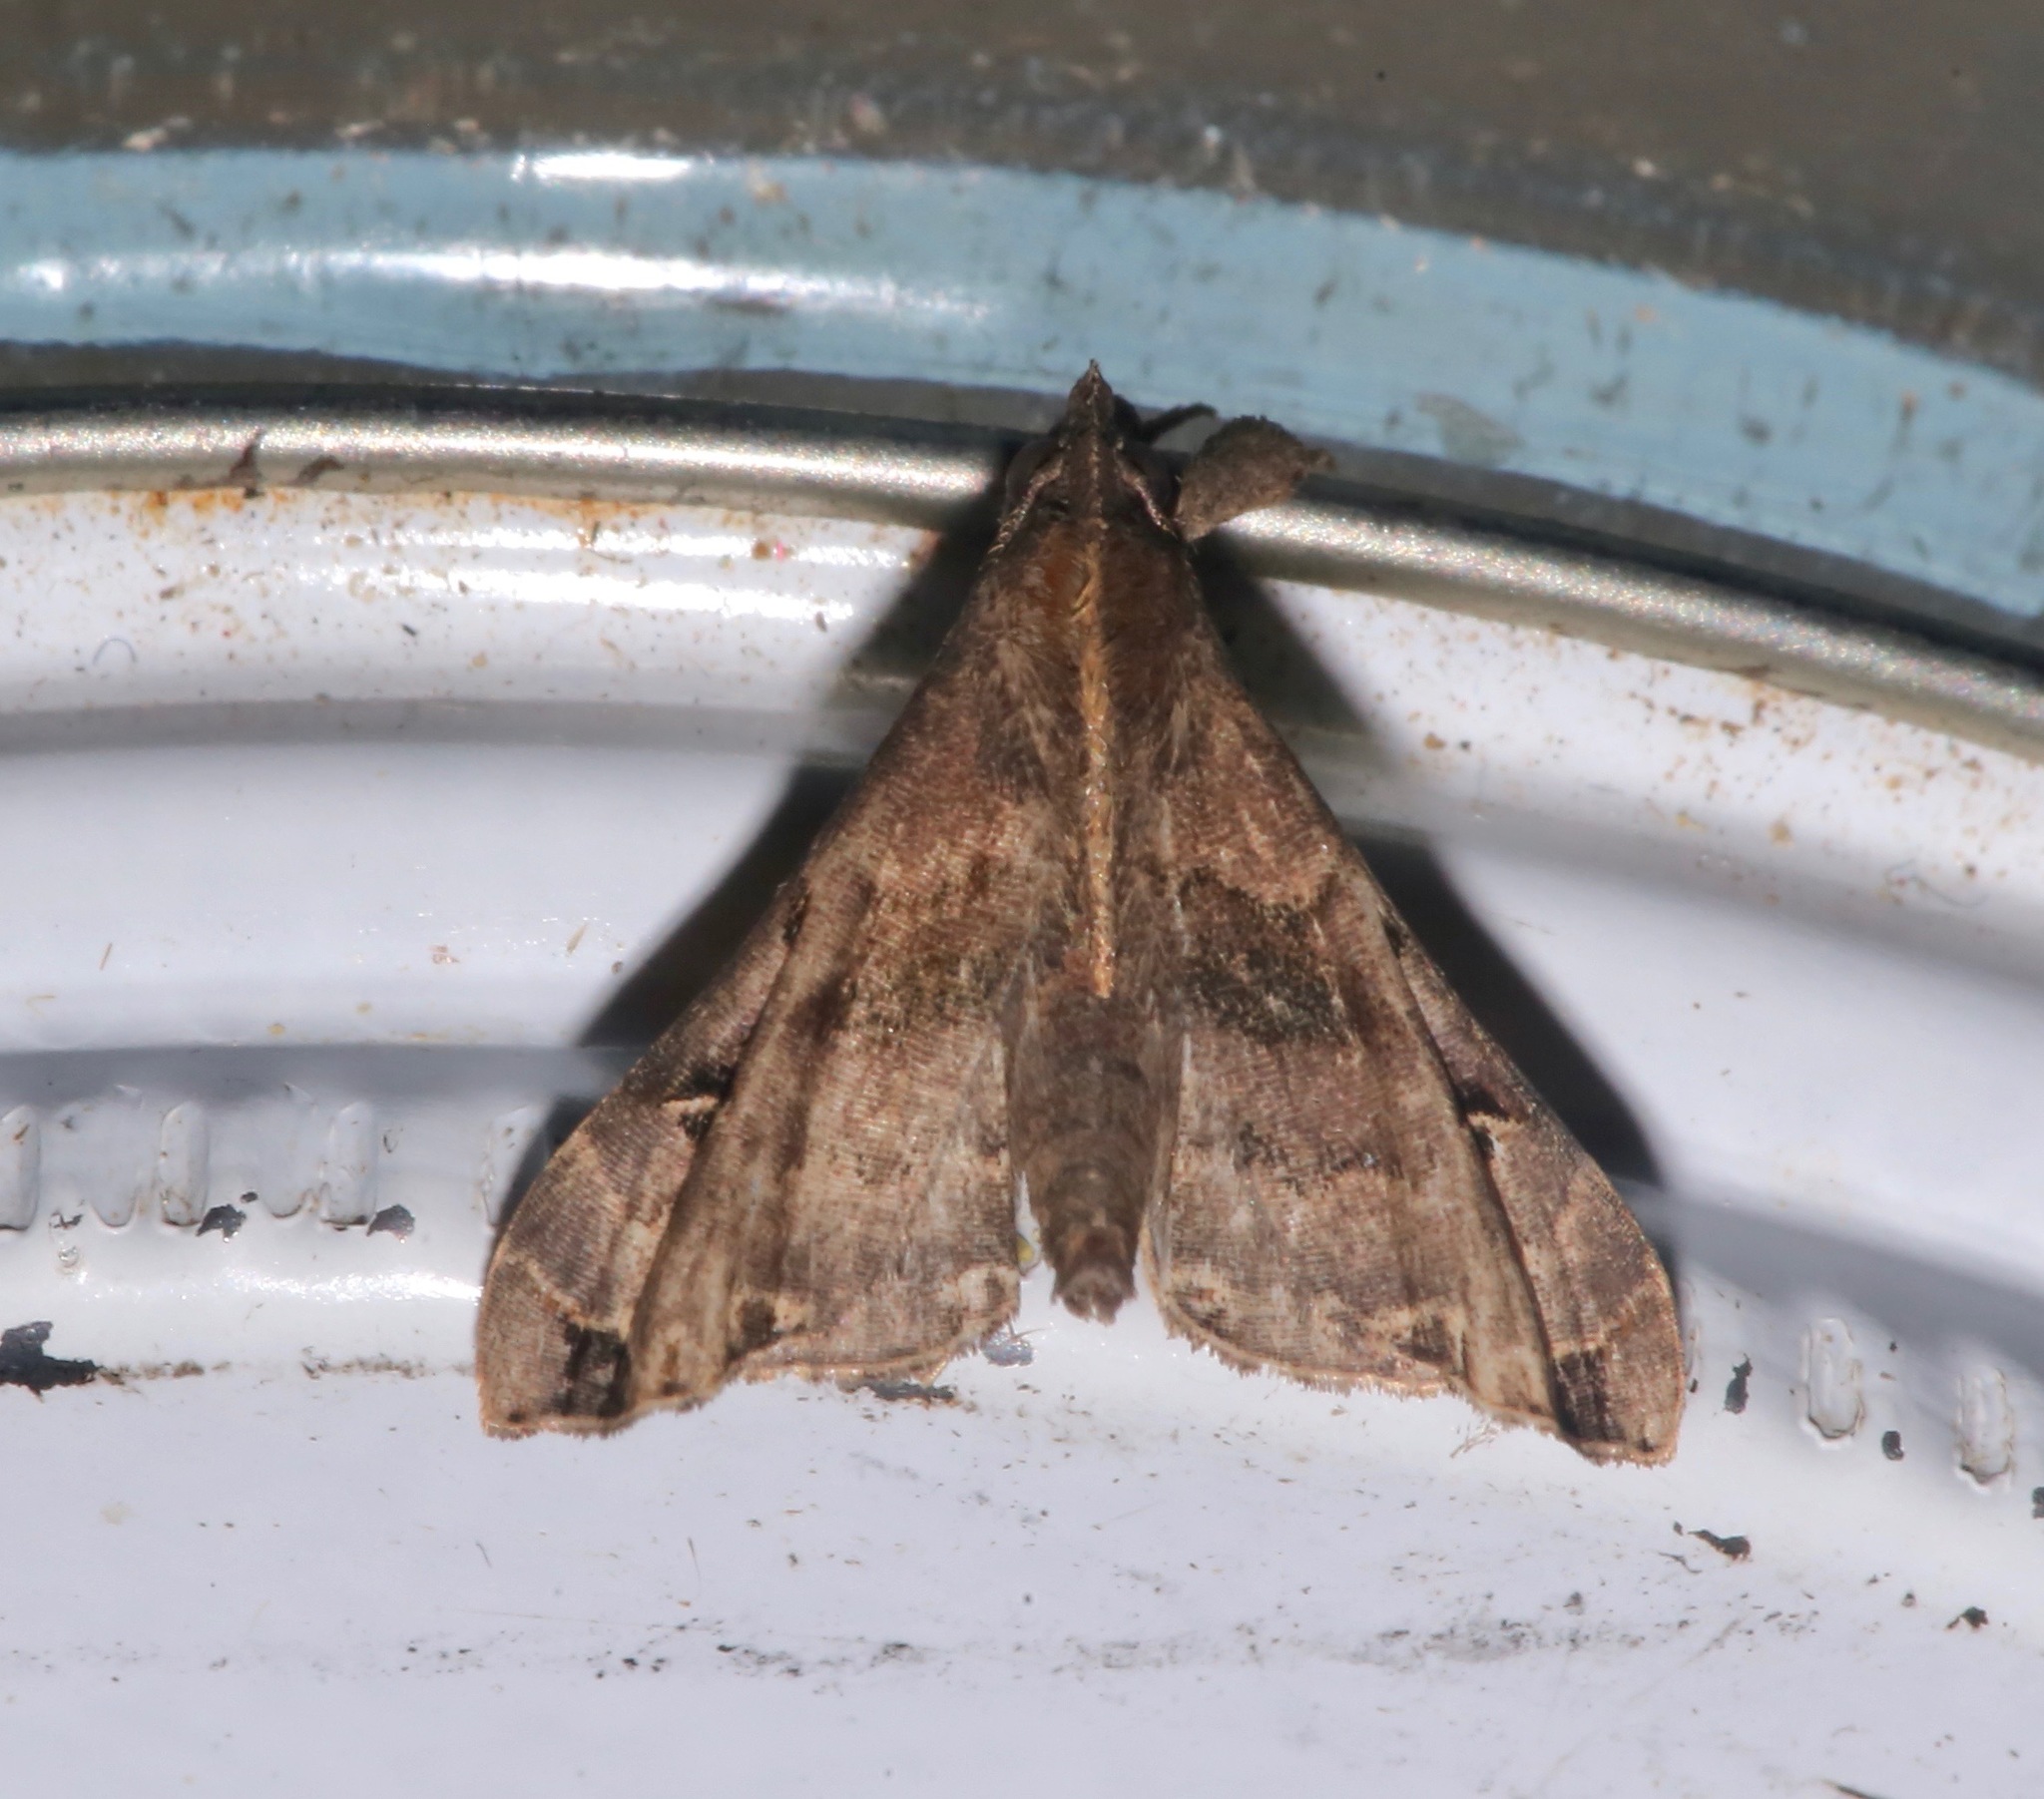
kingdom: Animalia
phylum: Arthropoda
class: Insecta
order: Lepidoptera
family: Erebidae
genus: Palthis
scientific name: Palthis asopialis
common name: Faint-spotted palthis moth
